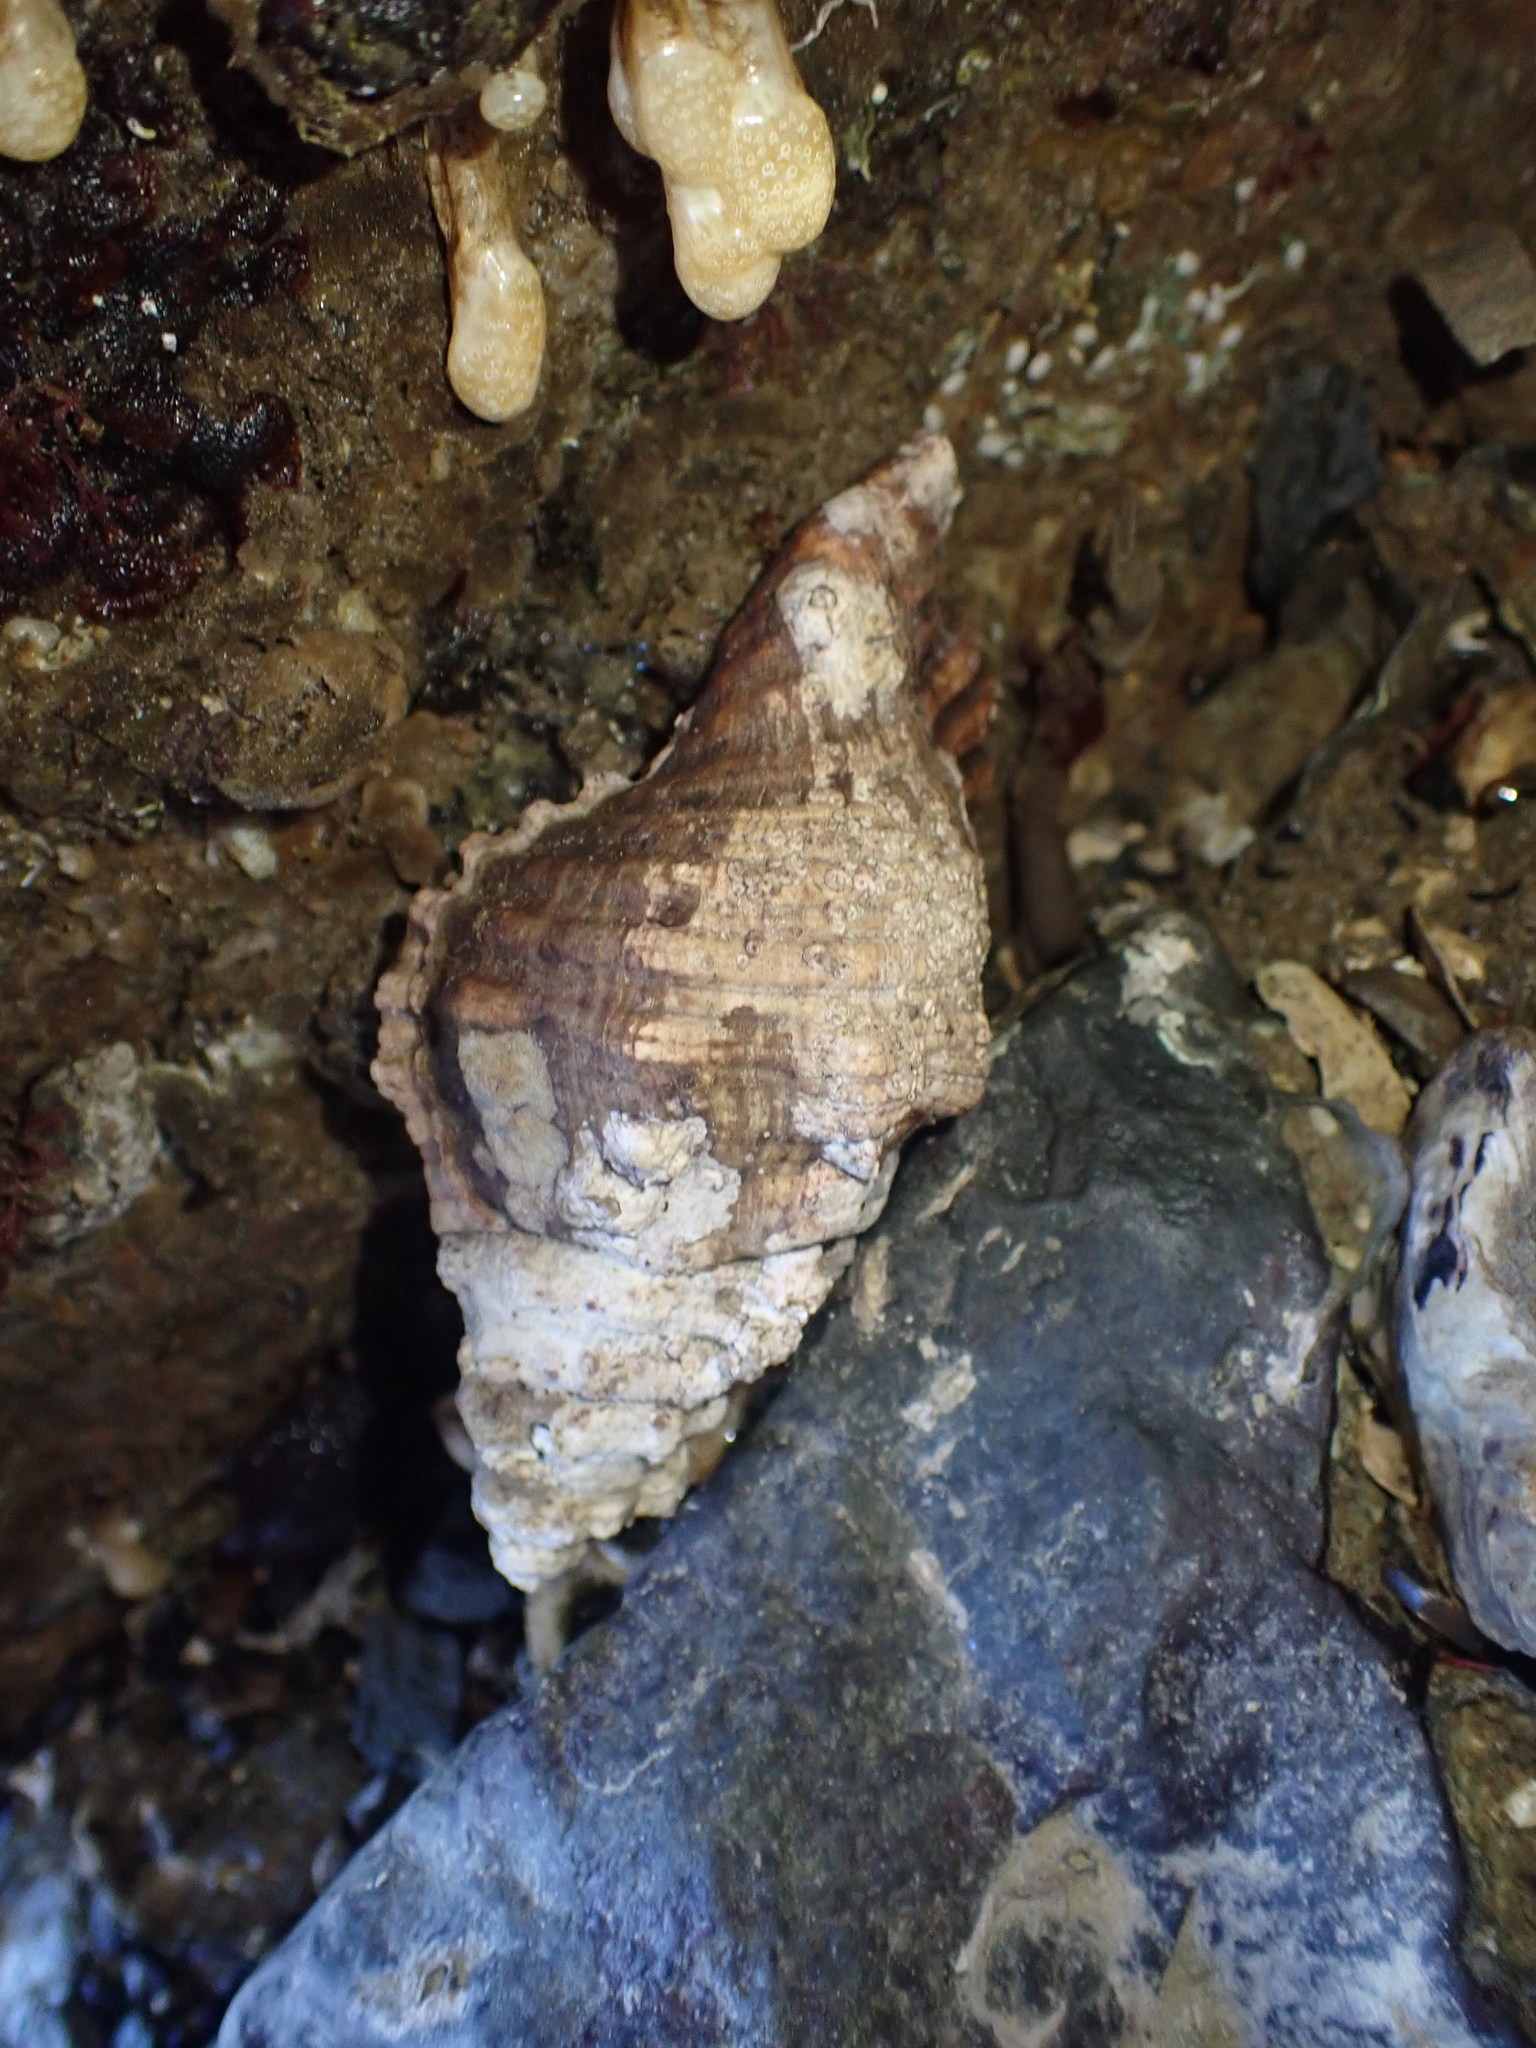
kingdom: Animalia
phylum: Mollusca
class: Gastropoda
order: Littorinimorpha
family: Cymatiidae
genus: Cabestana
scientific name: Cabestana spengleri
